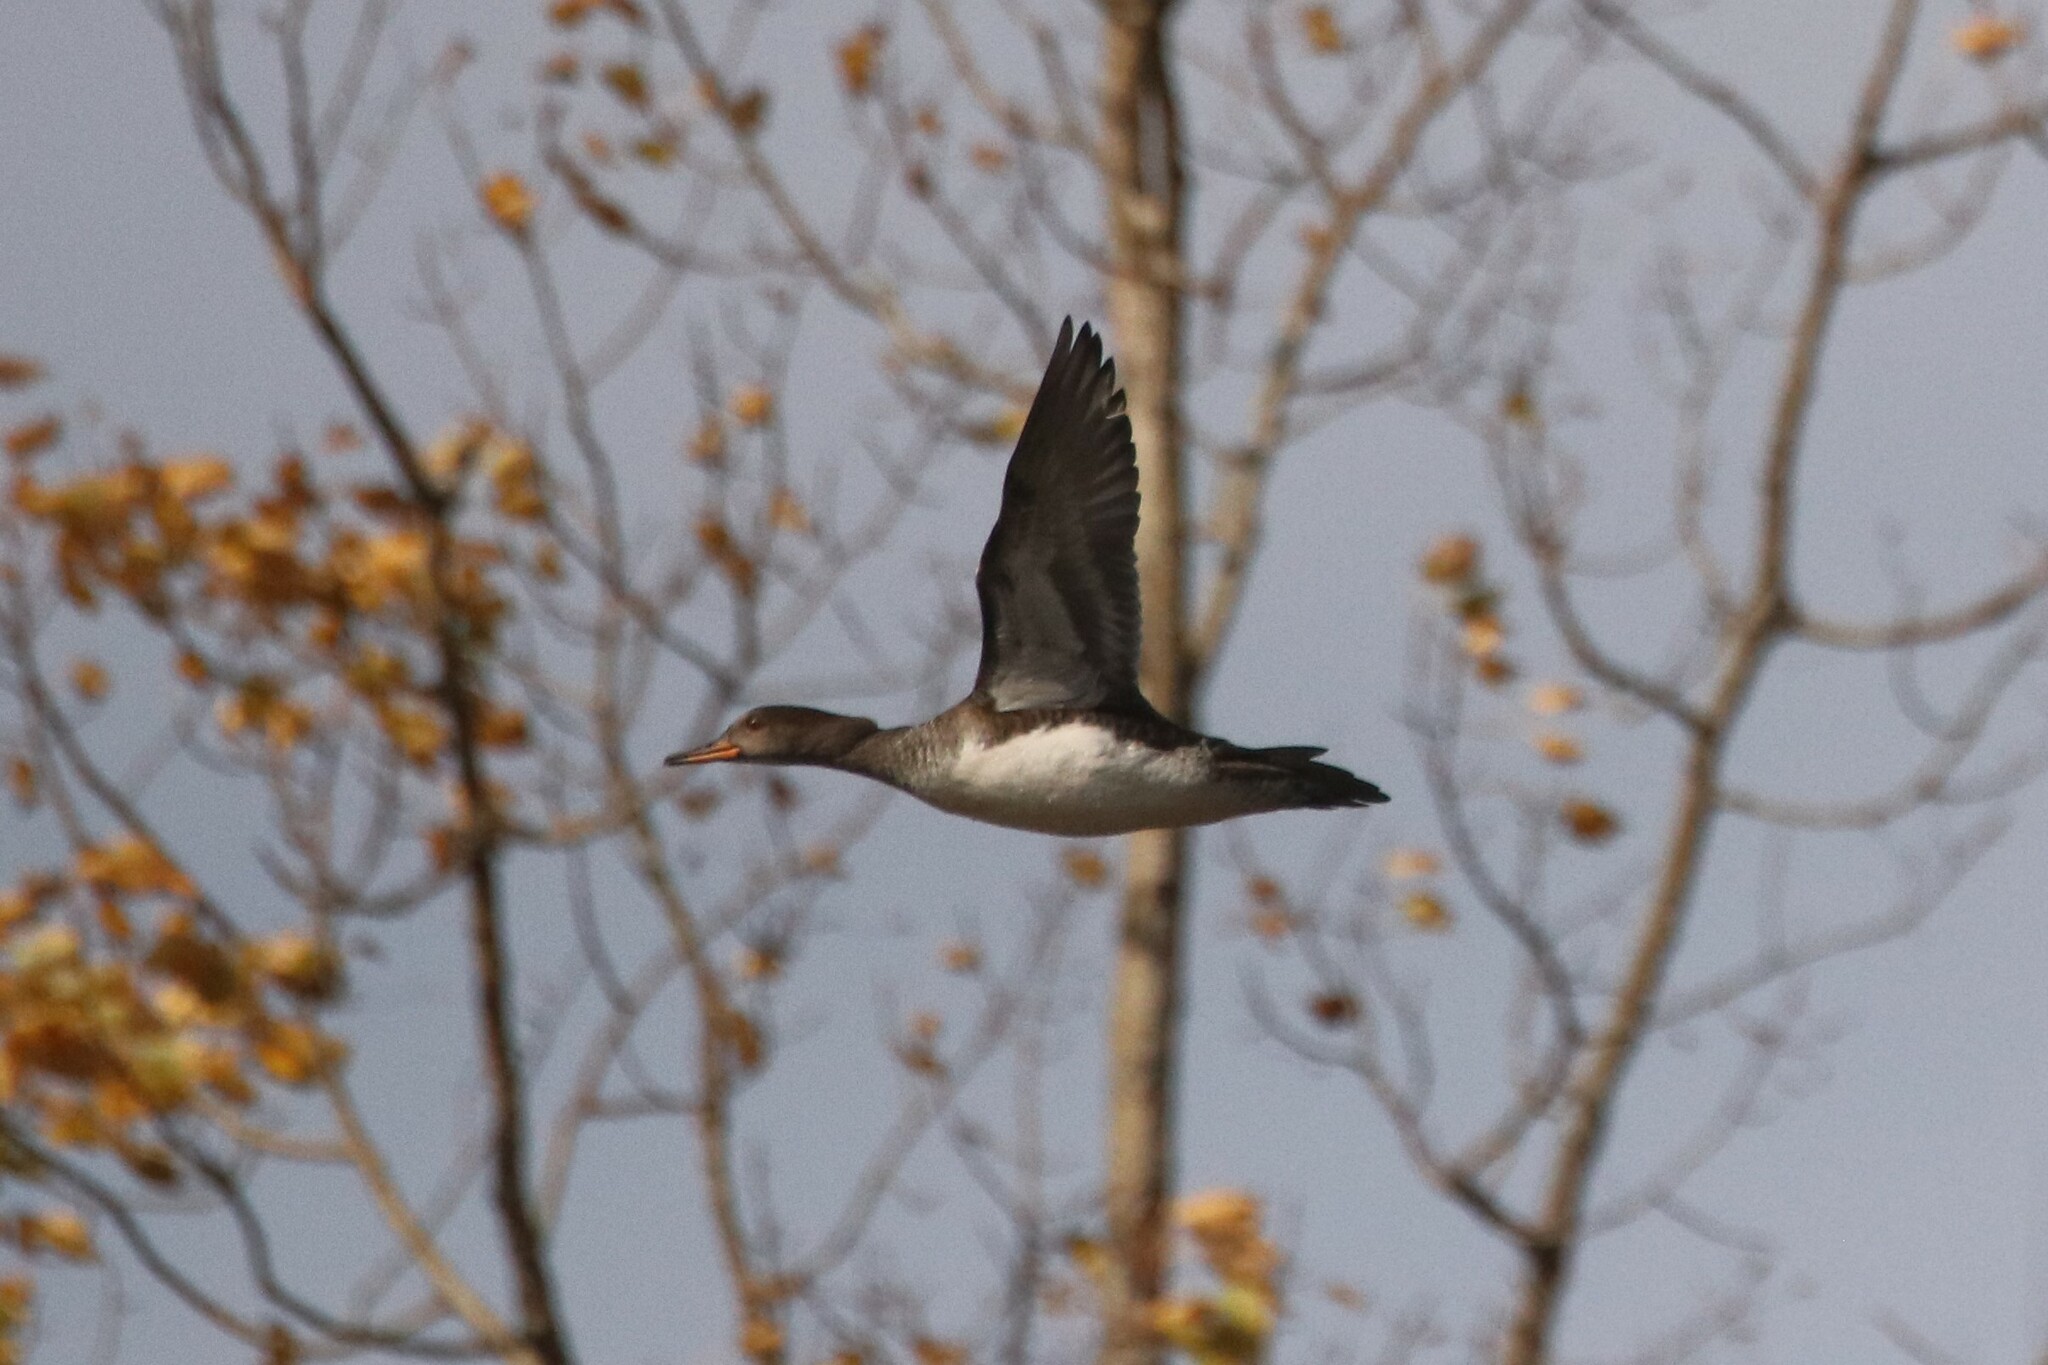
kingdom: Animalia
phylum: Chordata
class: Aves
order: Anseriformes
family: Anatidae
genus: Lophodytes
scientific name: Lophodytes cucullatus
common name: Hooded merganser
